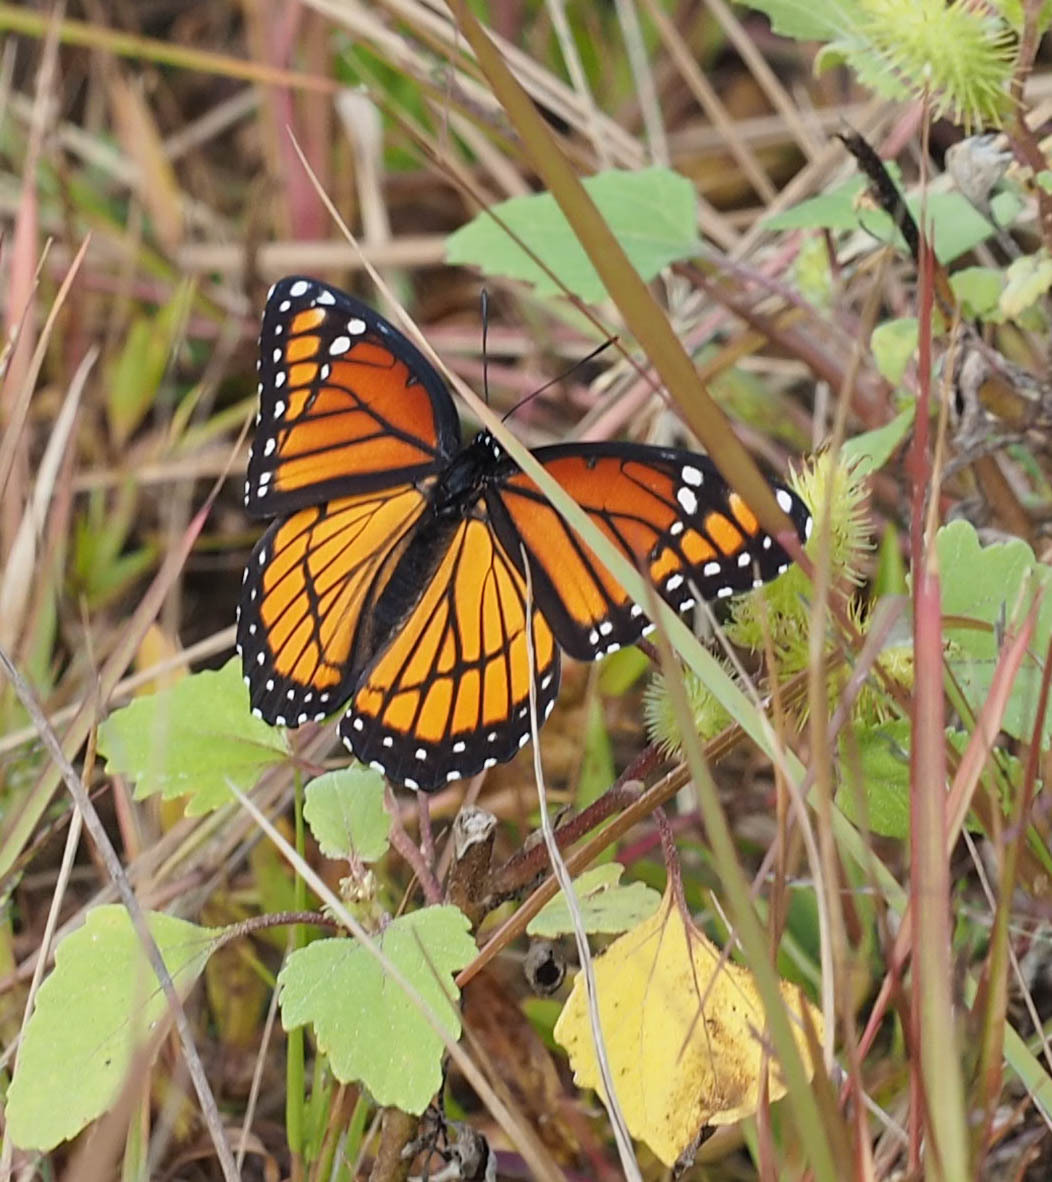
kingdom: Animalia
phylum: Arthropoda
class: Insecta
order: Lepidoptera
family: Nymphalidae
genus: Limenitis
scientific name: Limenitis archippus
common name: Viceroy
